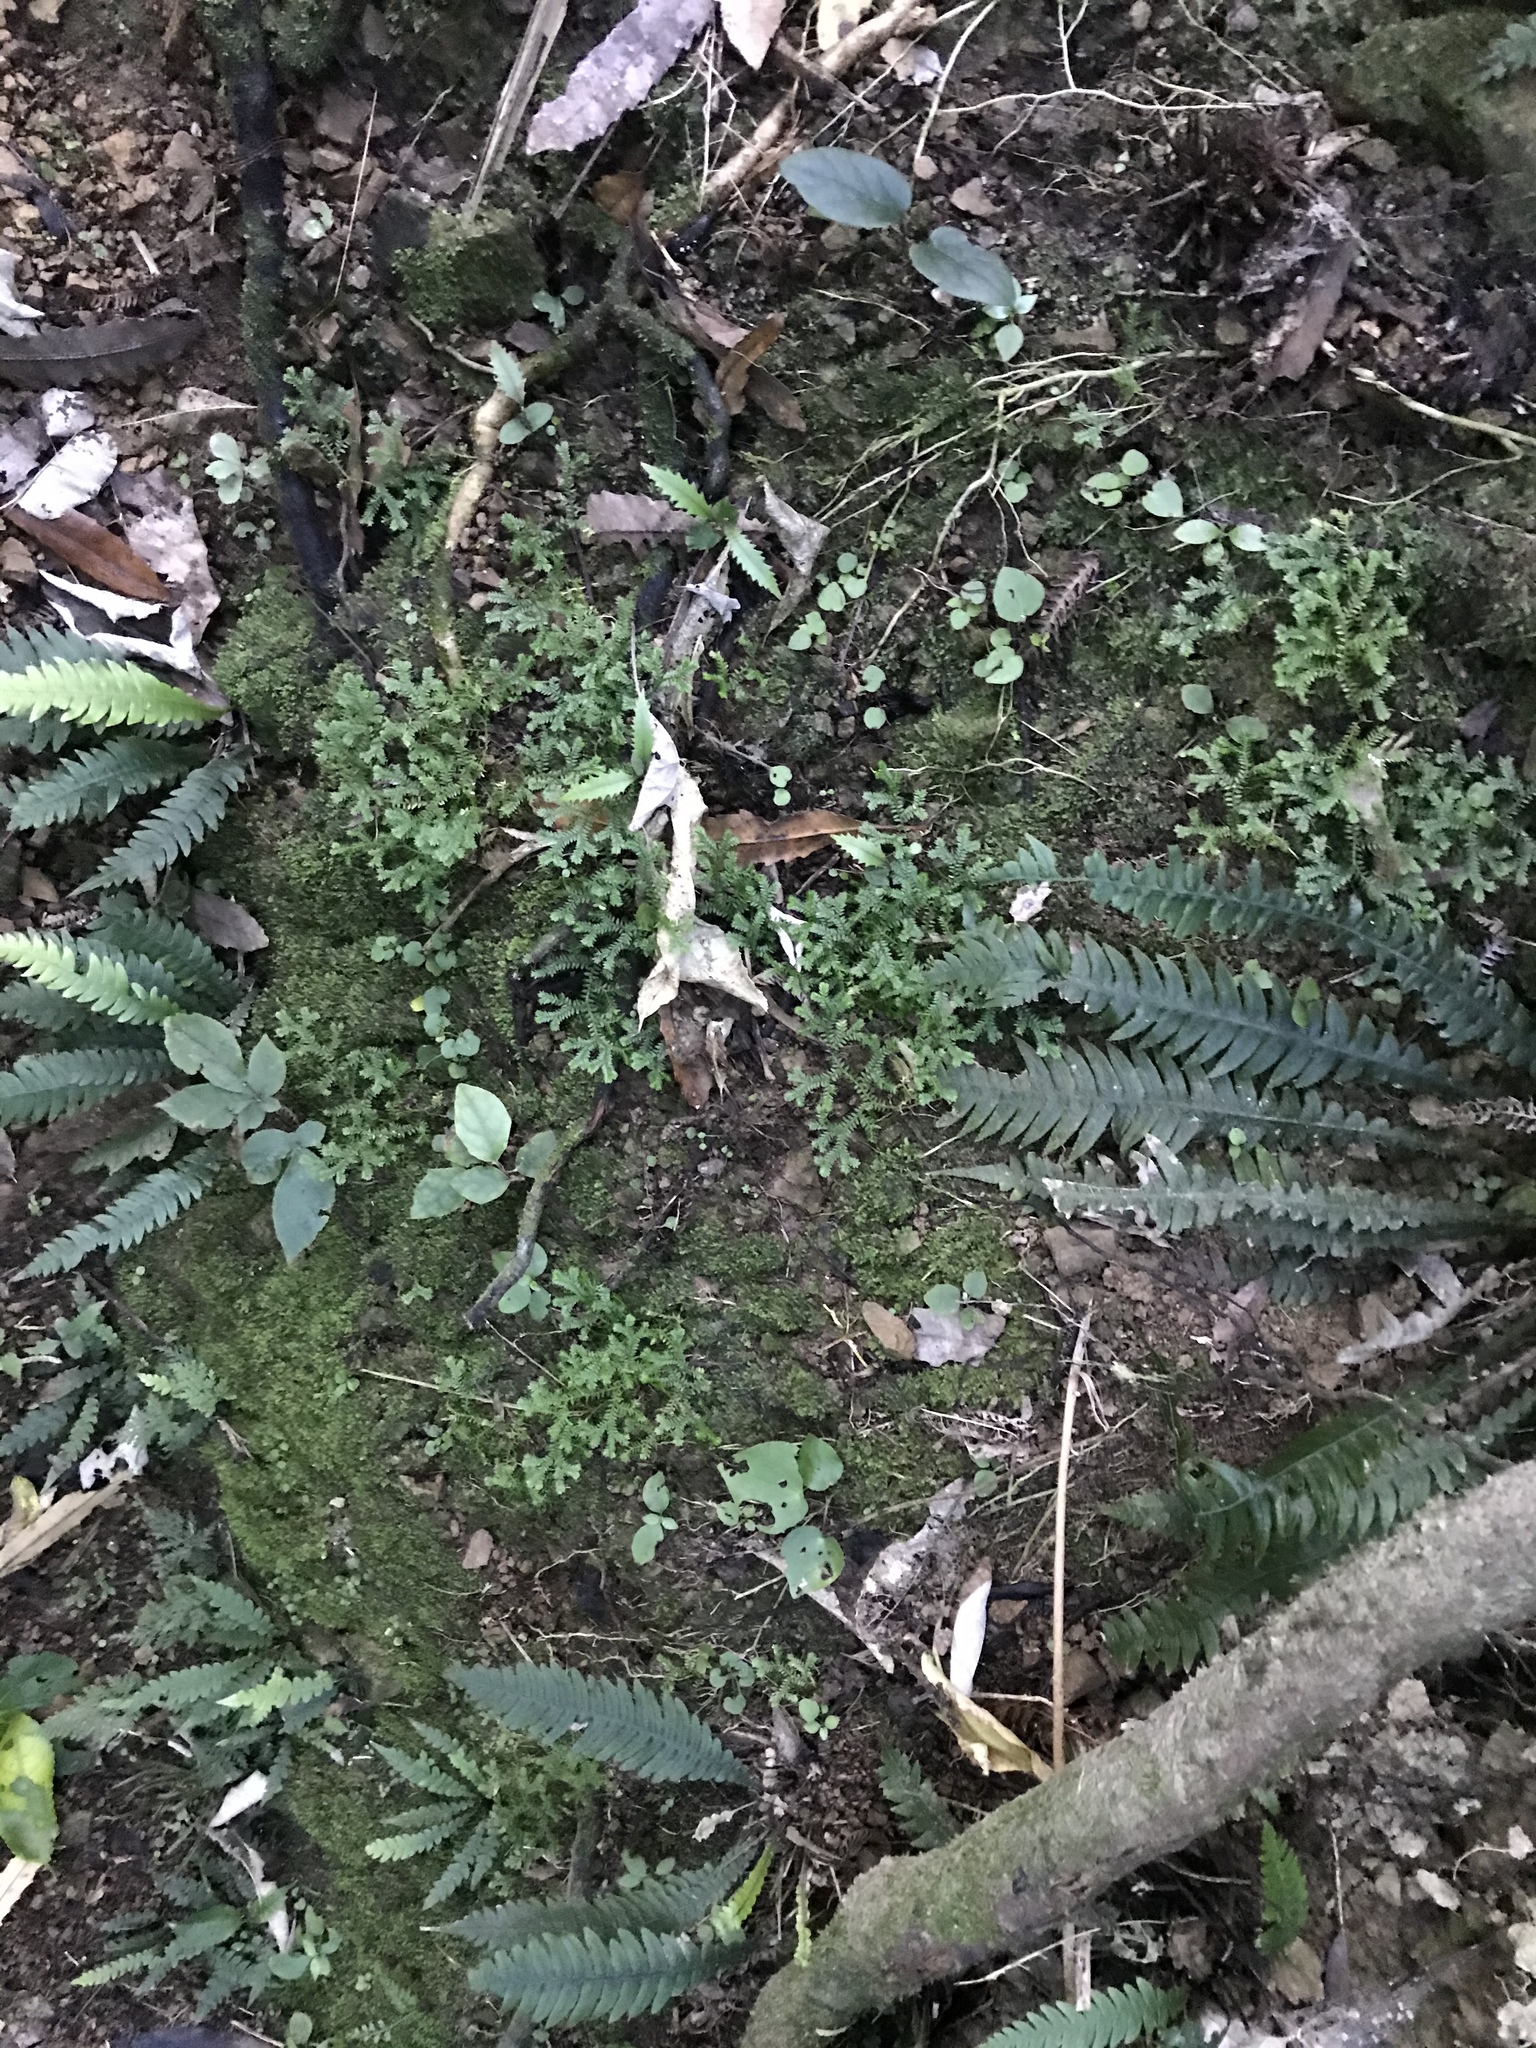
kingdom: Plantae
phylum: Tracheophyta
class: Lycopodiopsida
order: Selaginellales
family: Selaginellaceae
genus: Selaginella
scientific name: Selaginella kraussiana
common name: Krauss' spikemoss
